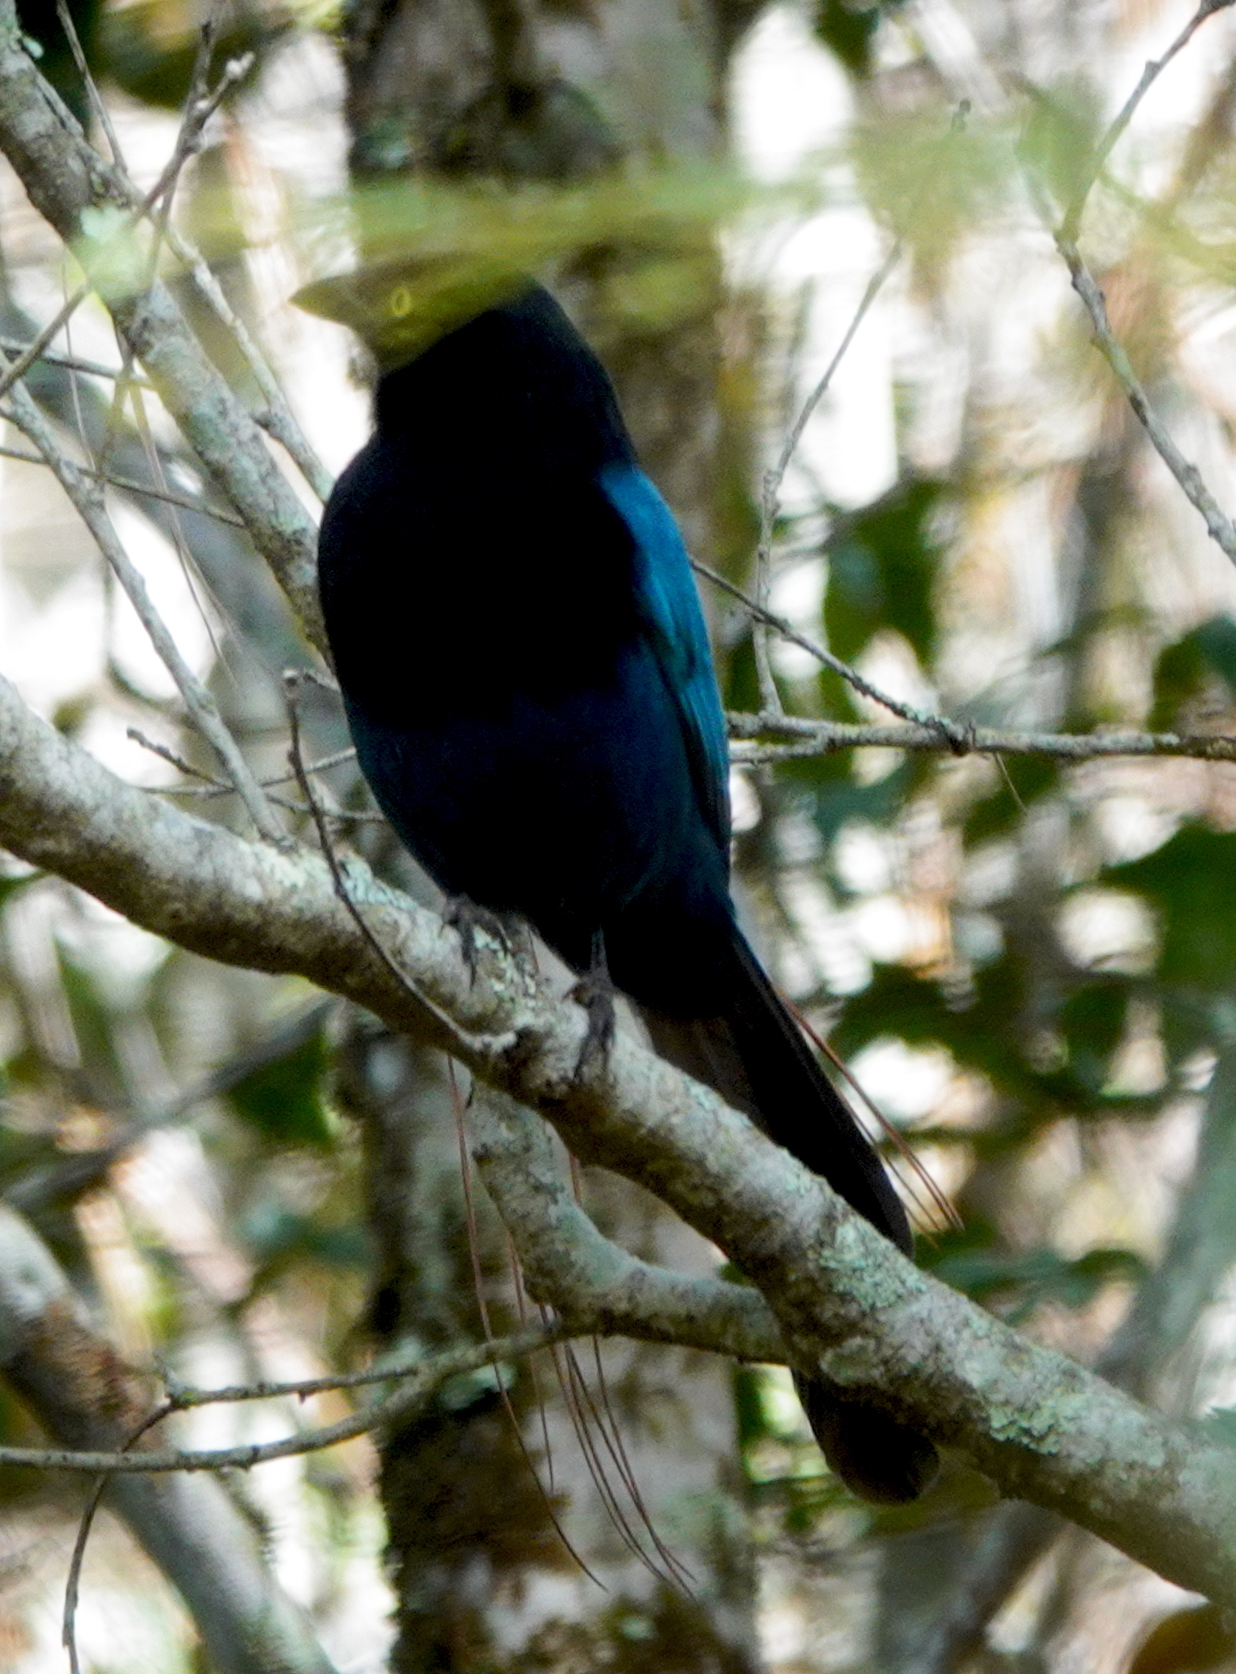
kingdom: Animalia
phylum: Chordata
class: Aves
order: Passeriformes
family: Corvidae
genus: Cyanocorax
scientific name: Cyanocorax melanocyaneus
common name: Bushy-crested jay
